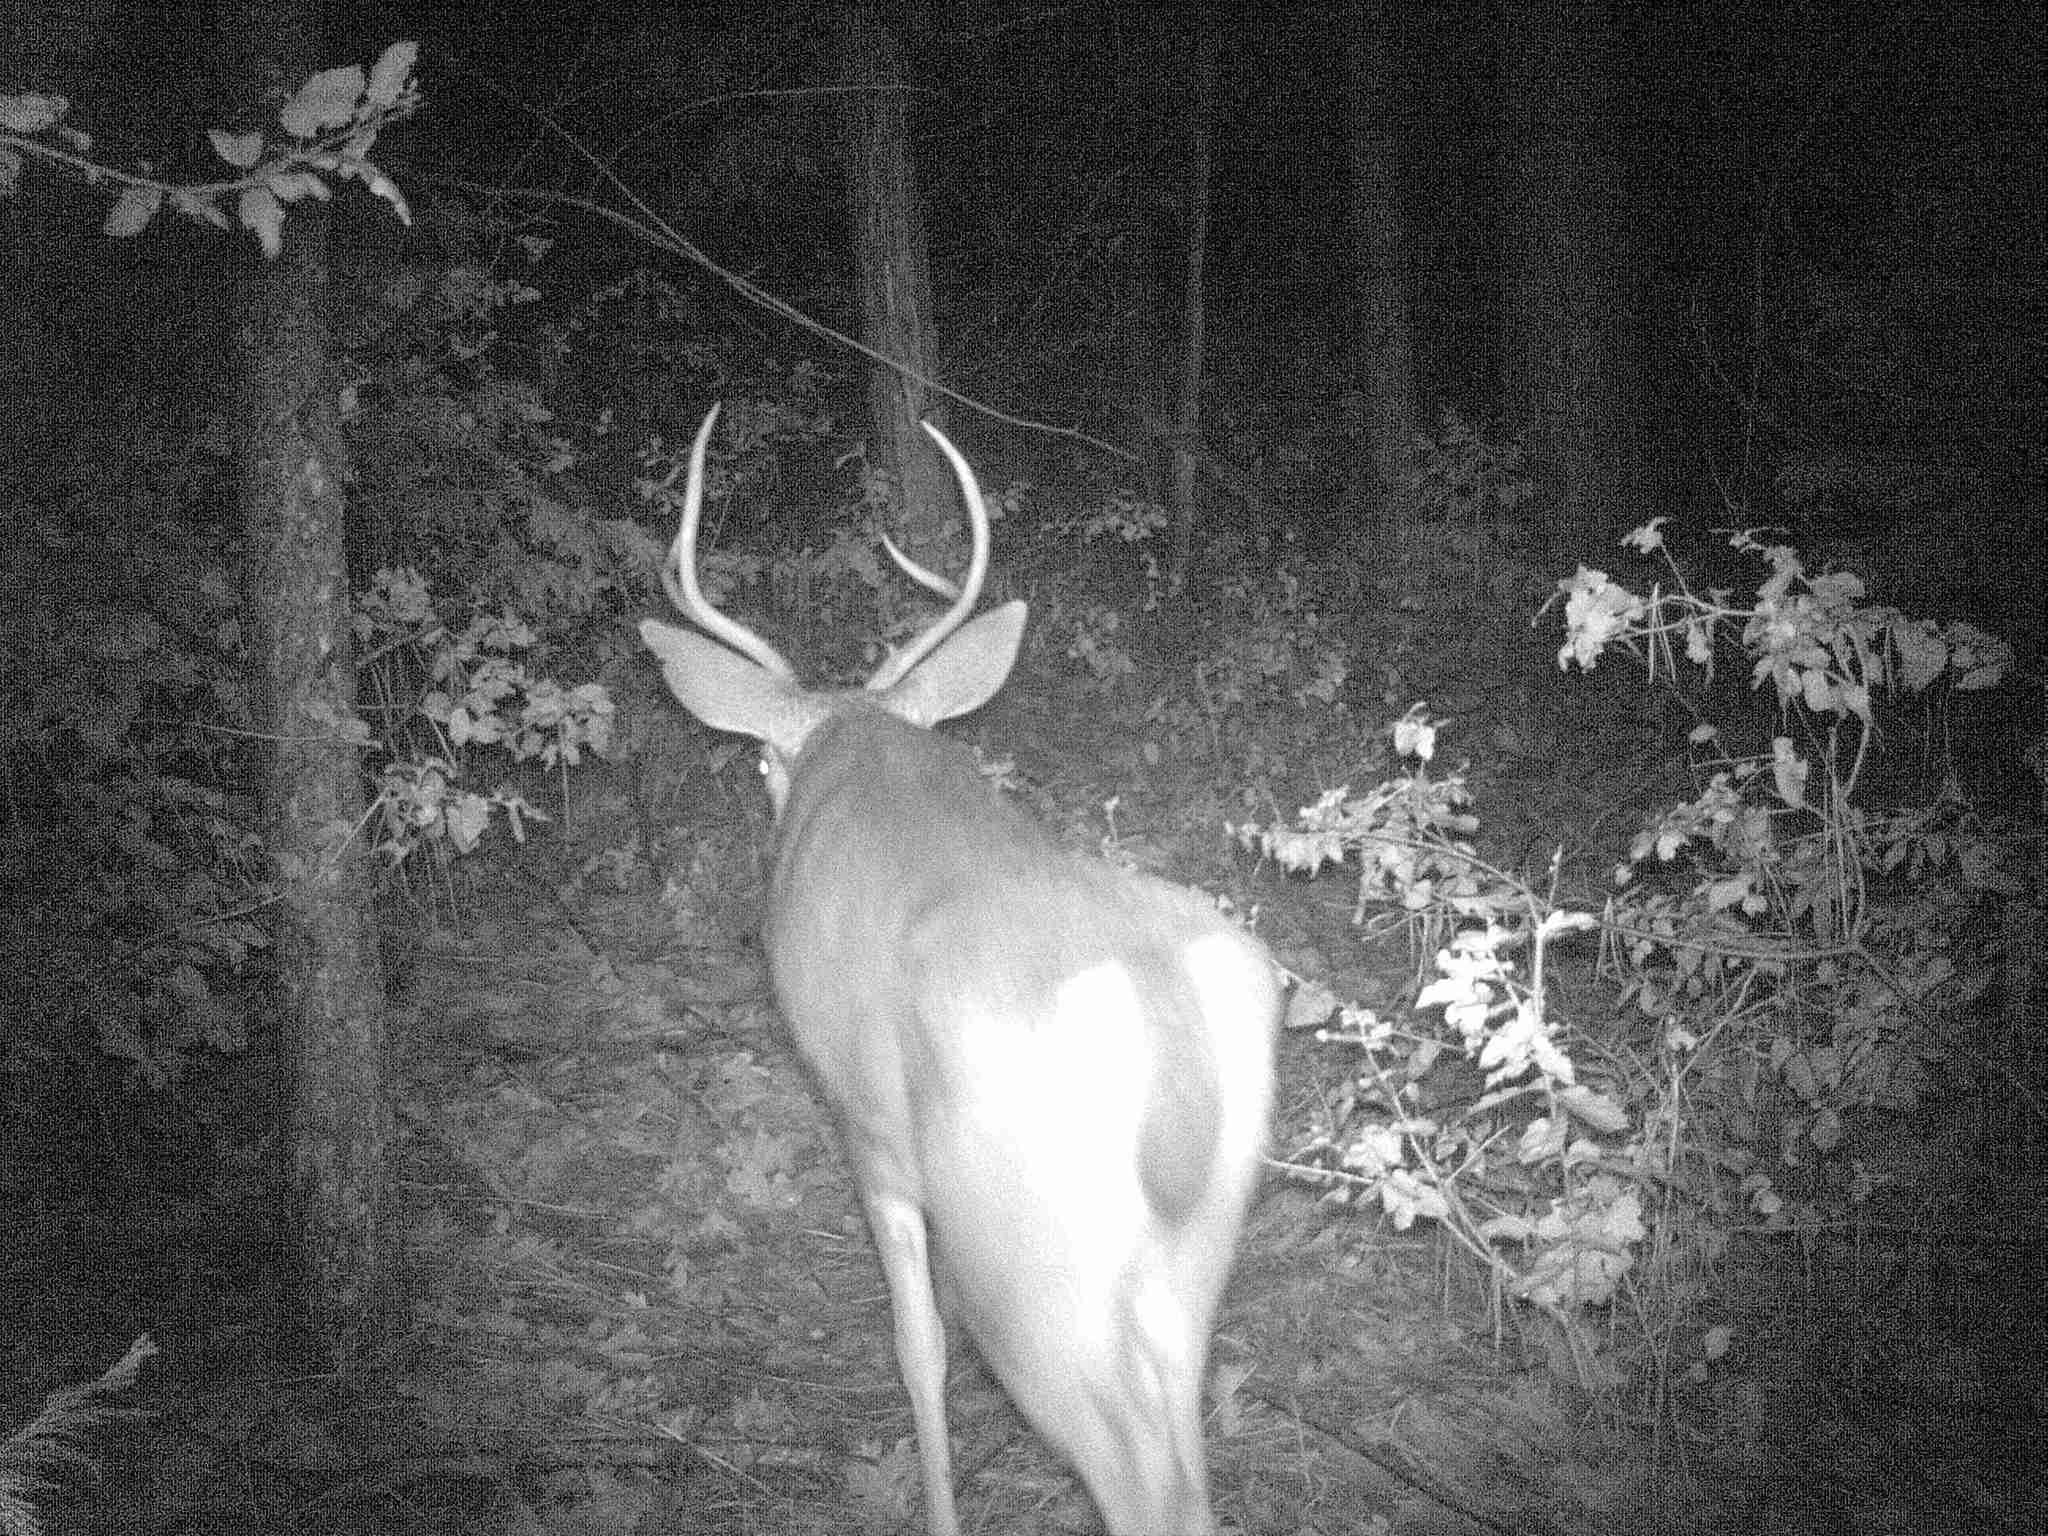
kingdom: Animalia
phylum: Chordata
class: Mammalia
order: Artiodactyla
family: Cervidae
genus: Odocoileus
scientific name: Odocoileus hemionus
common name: Mule deer
